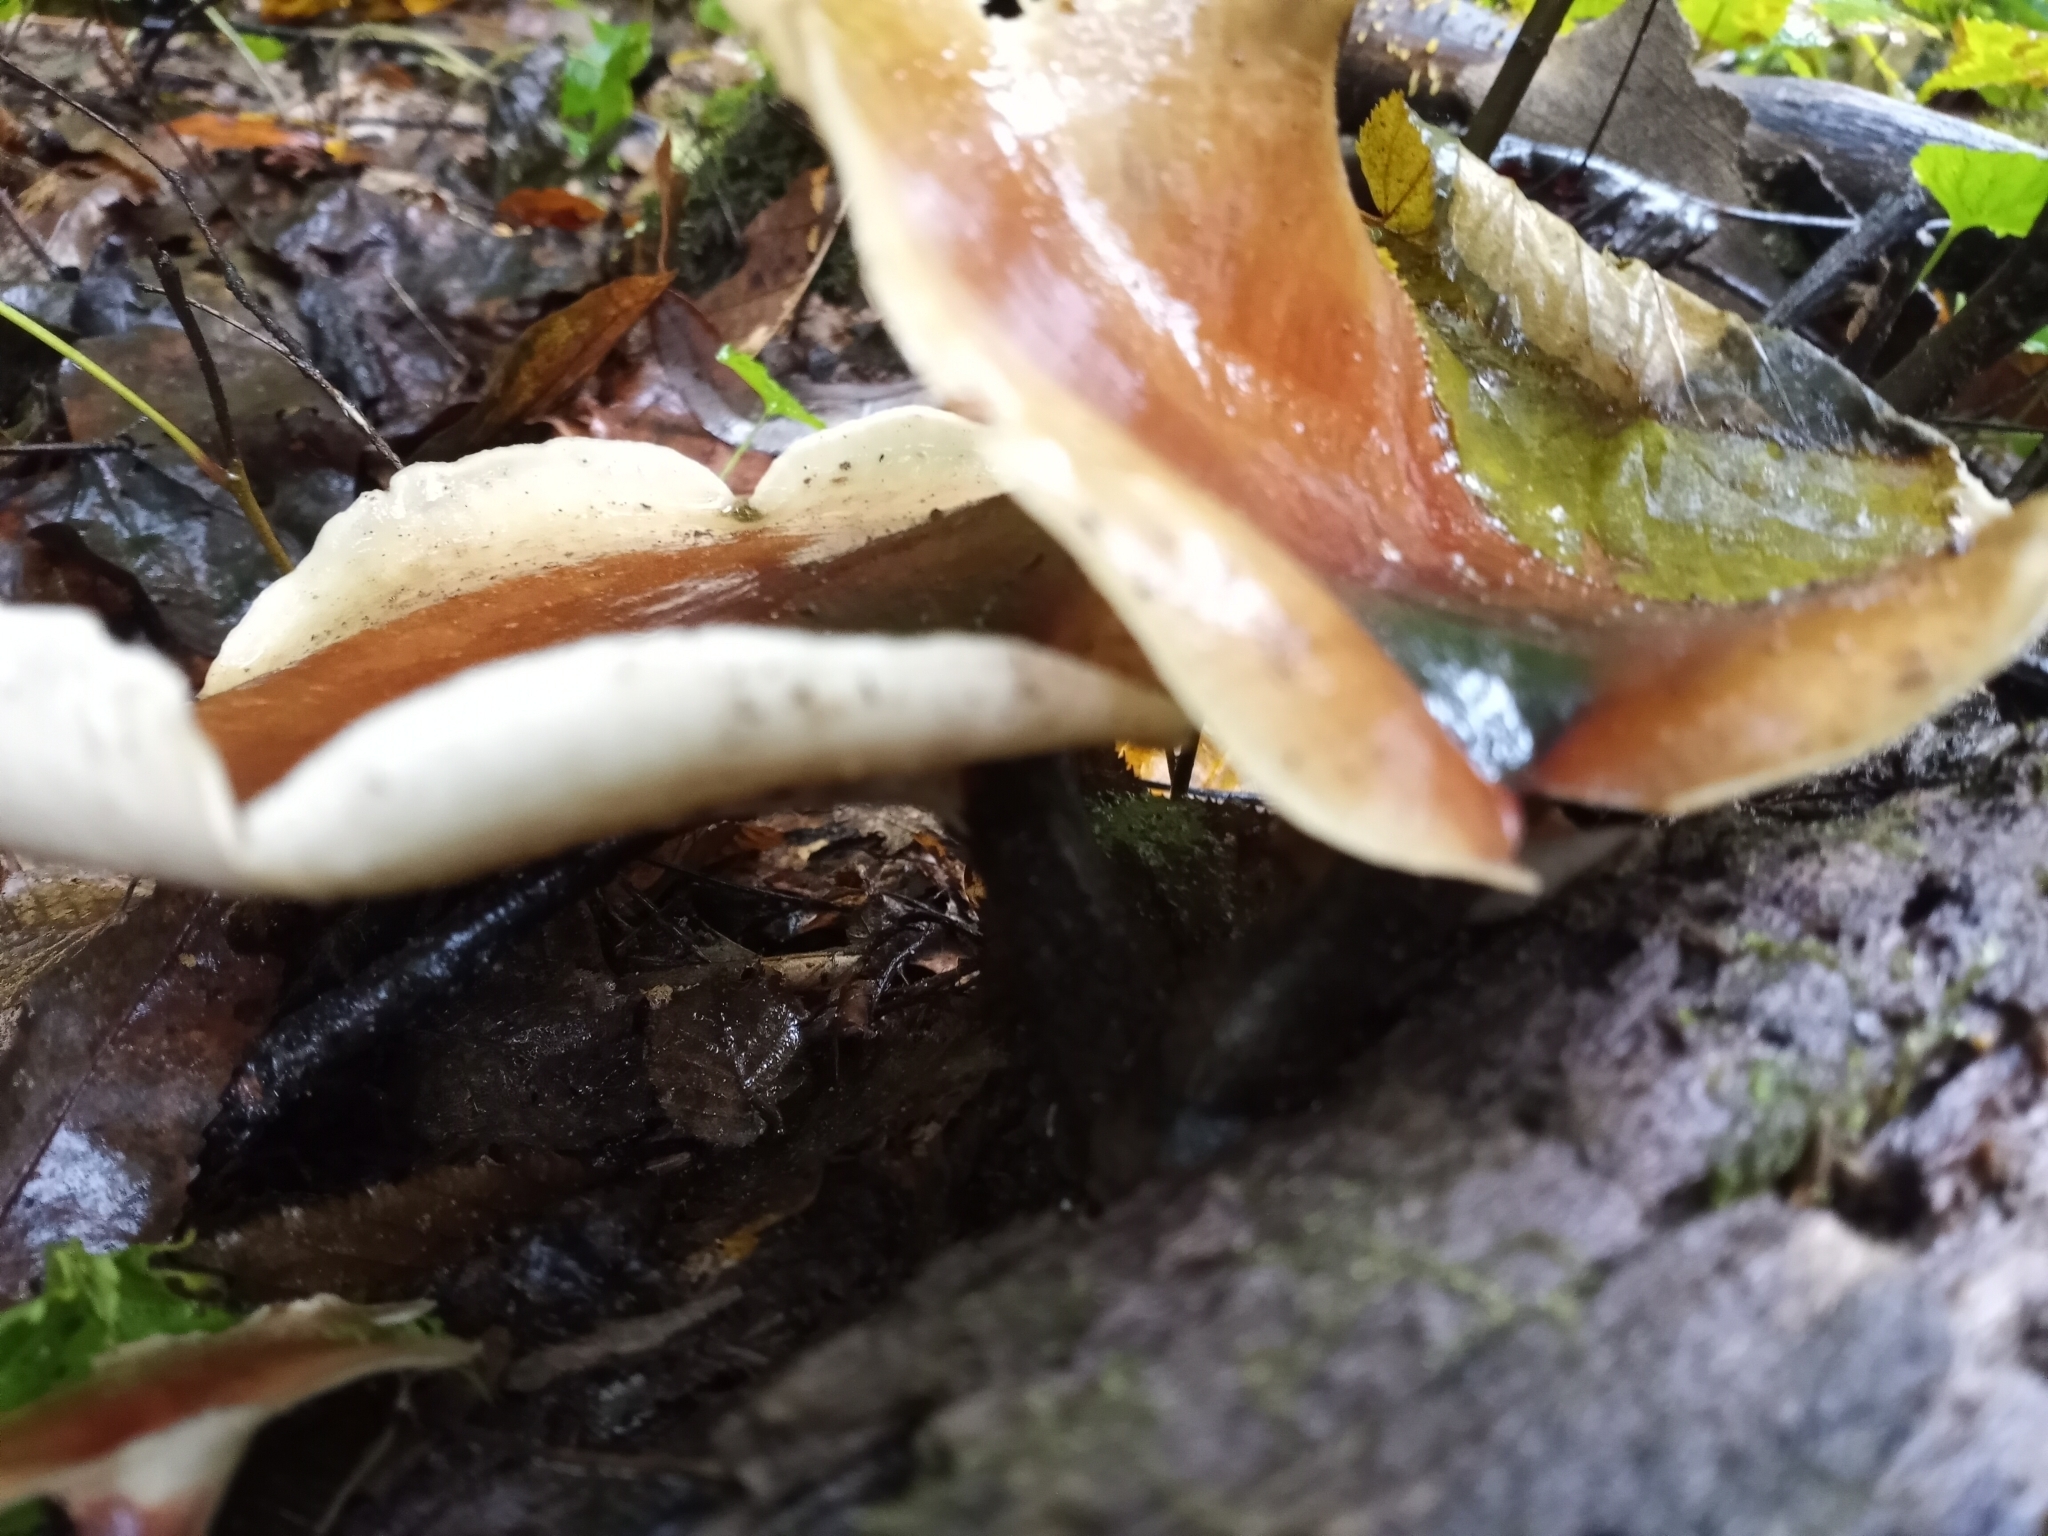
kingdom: Fungi
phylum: Basidiomycota
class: Agaricomycetes
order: Polyporales
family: Polyporaceae
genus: Picipes
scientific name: Picipes badius
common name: Bay polypore
